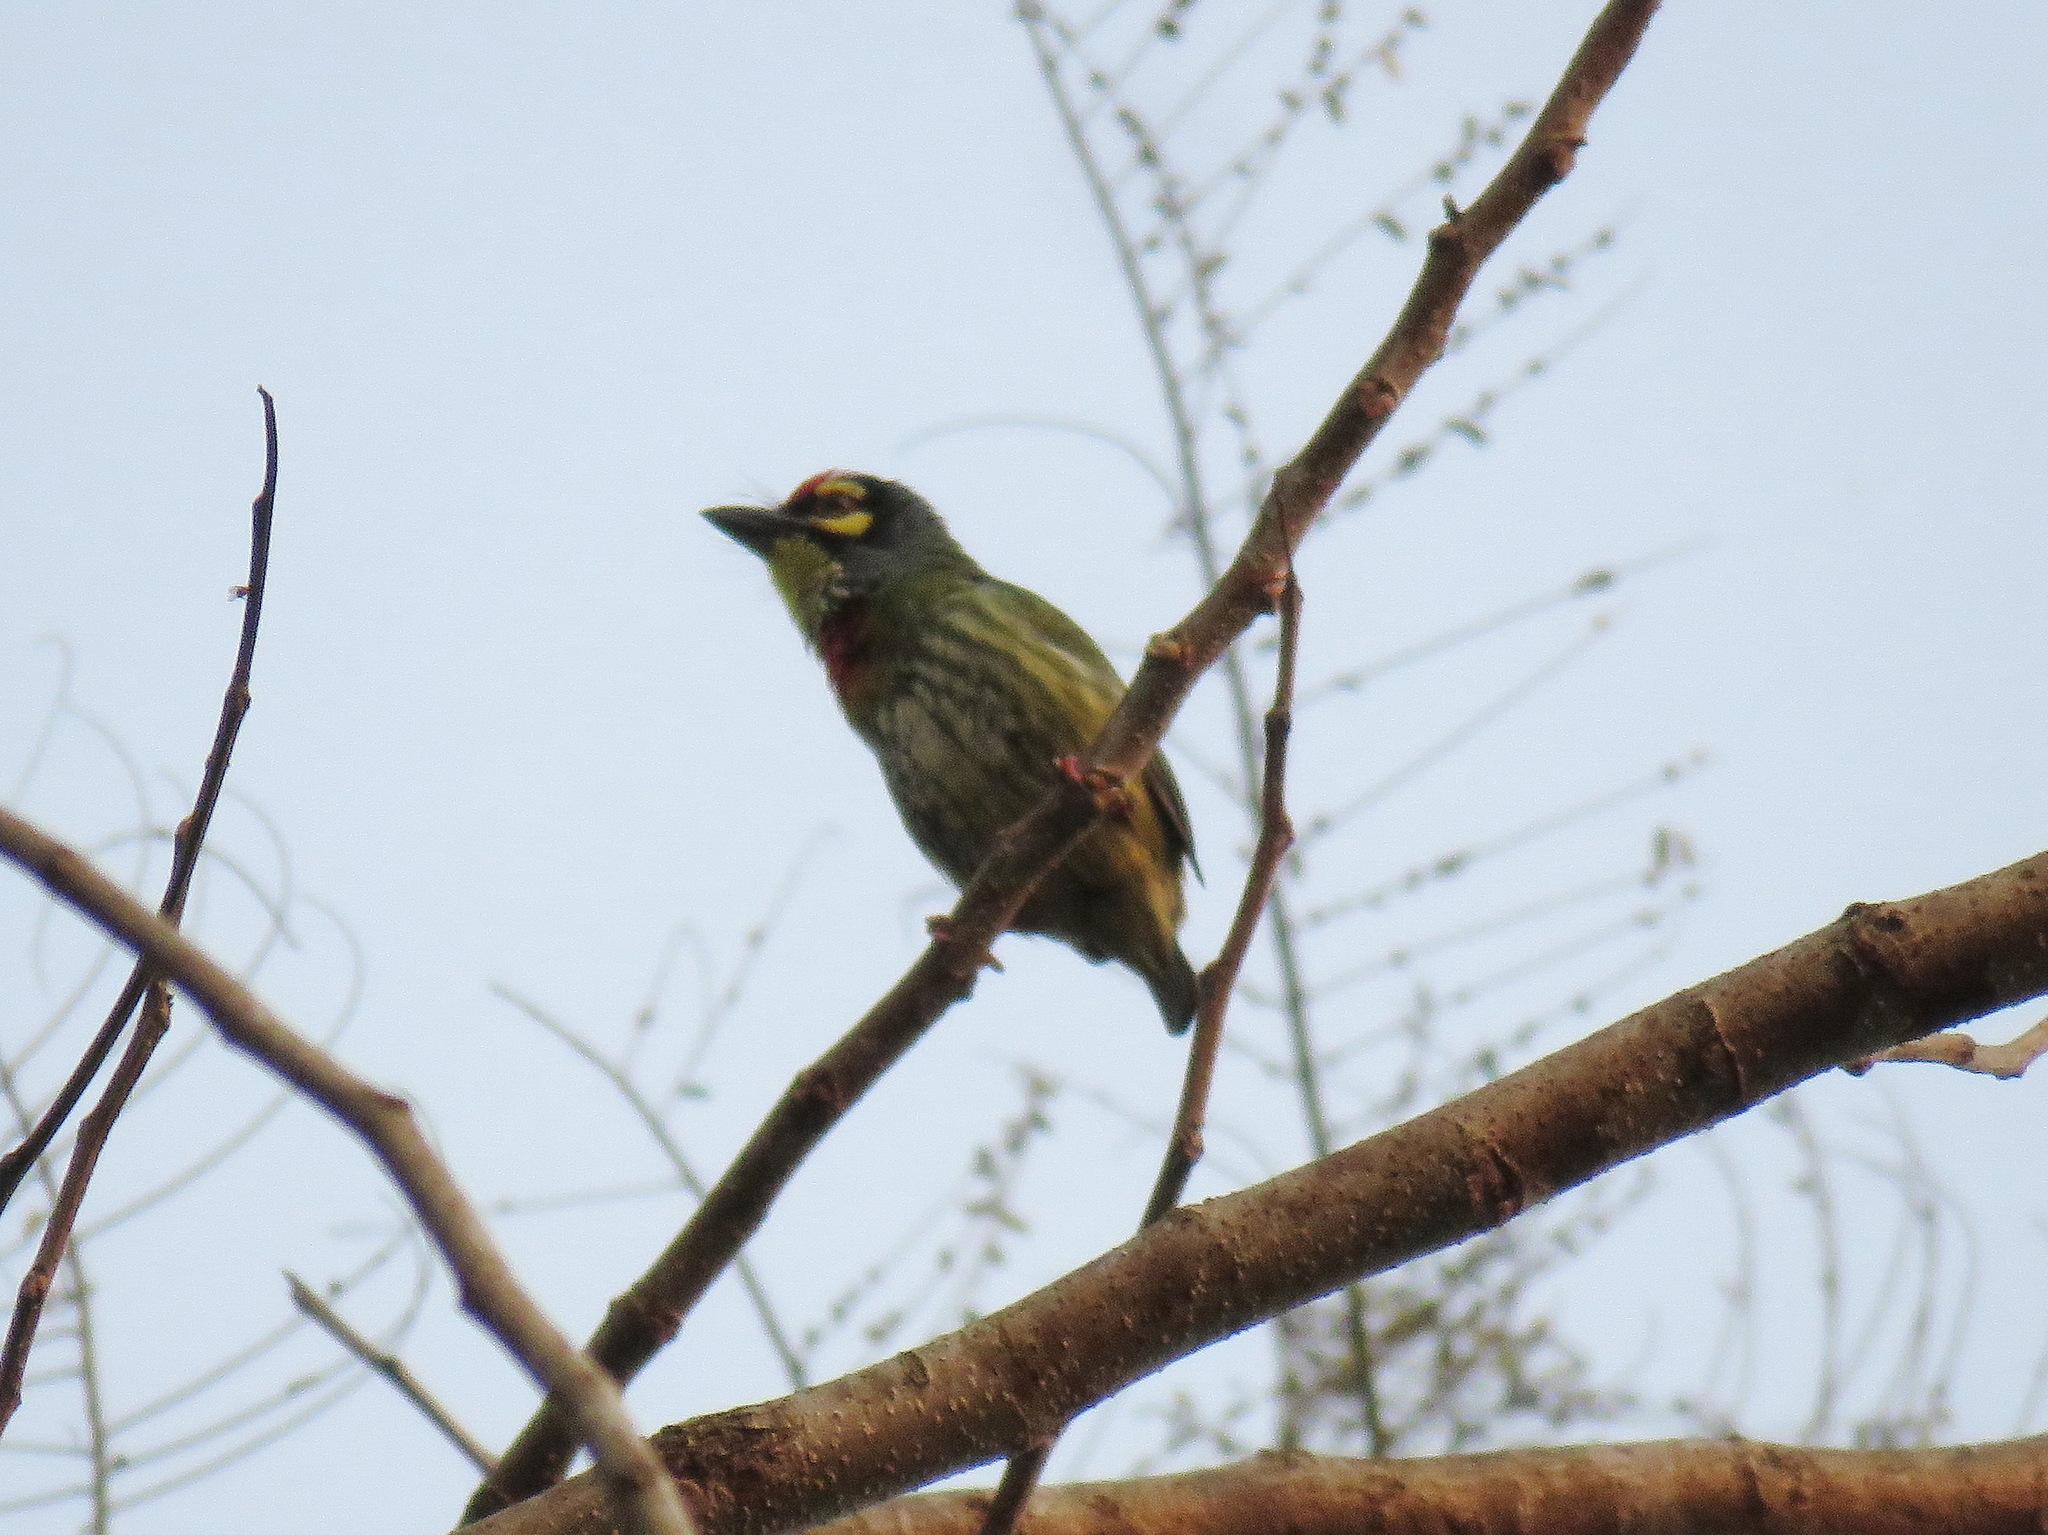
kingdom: Animalia
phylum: Chordata
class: Aves
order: Piciformes
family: Megalaimidae
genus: Psilopogon
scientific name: Psilopogon haemacephalus
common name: Coppersmith barbet
